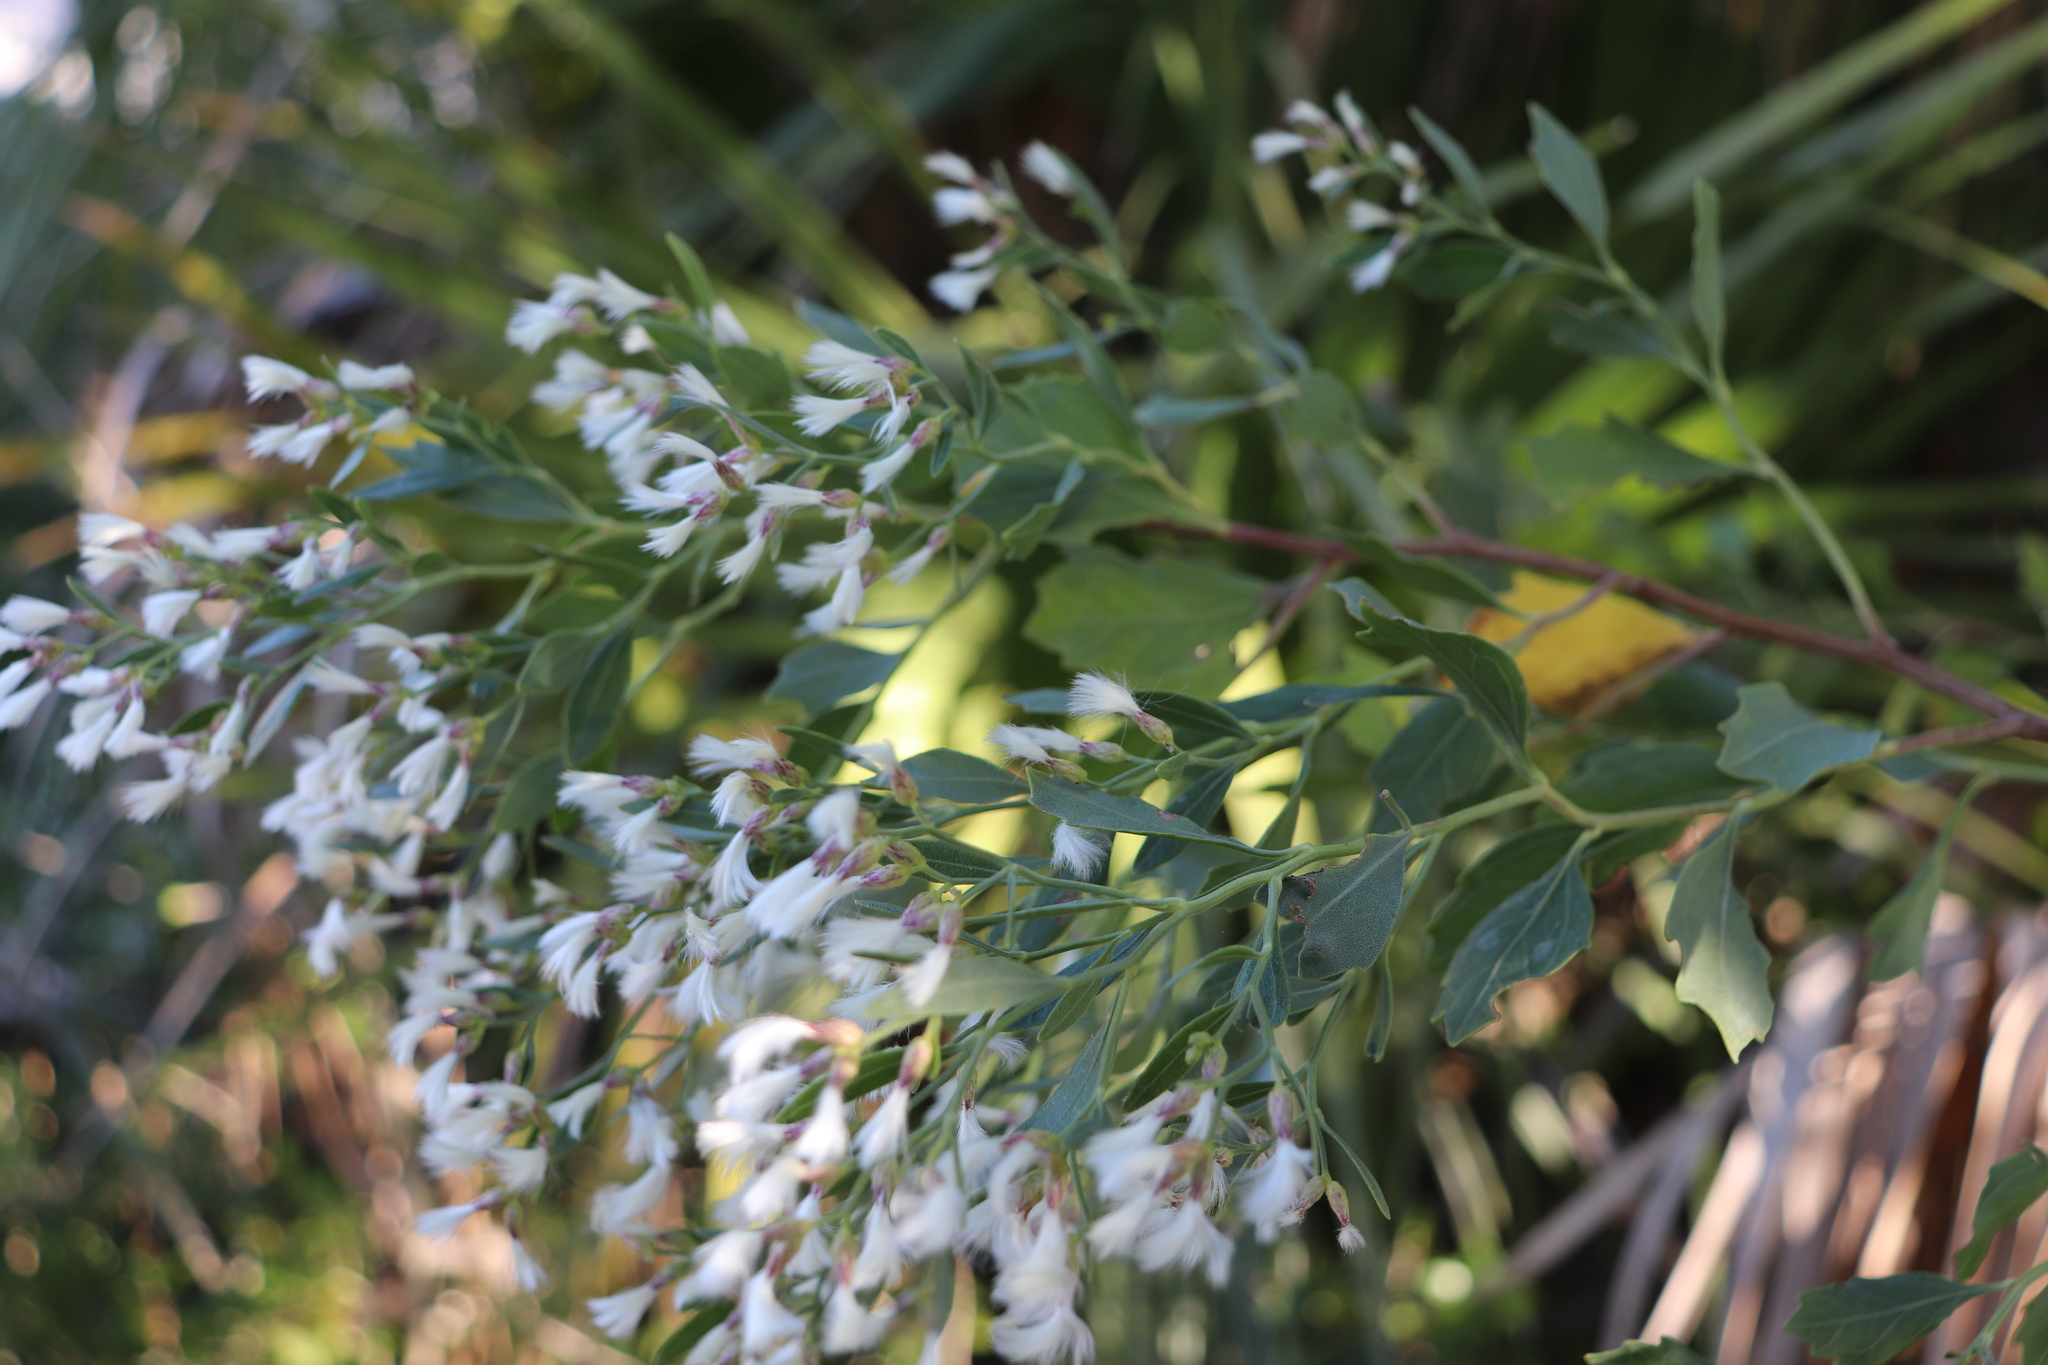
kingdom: Plantae
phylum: Tracheophyta
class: Magnoliopsida
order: Asterales
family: Asteraceae
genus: Baccharis
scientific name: Baccharis halimifolia
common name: Eastern baccharis
